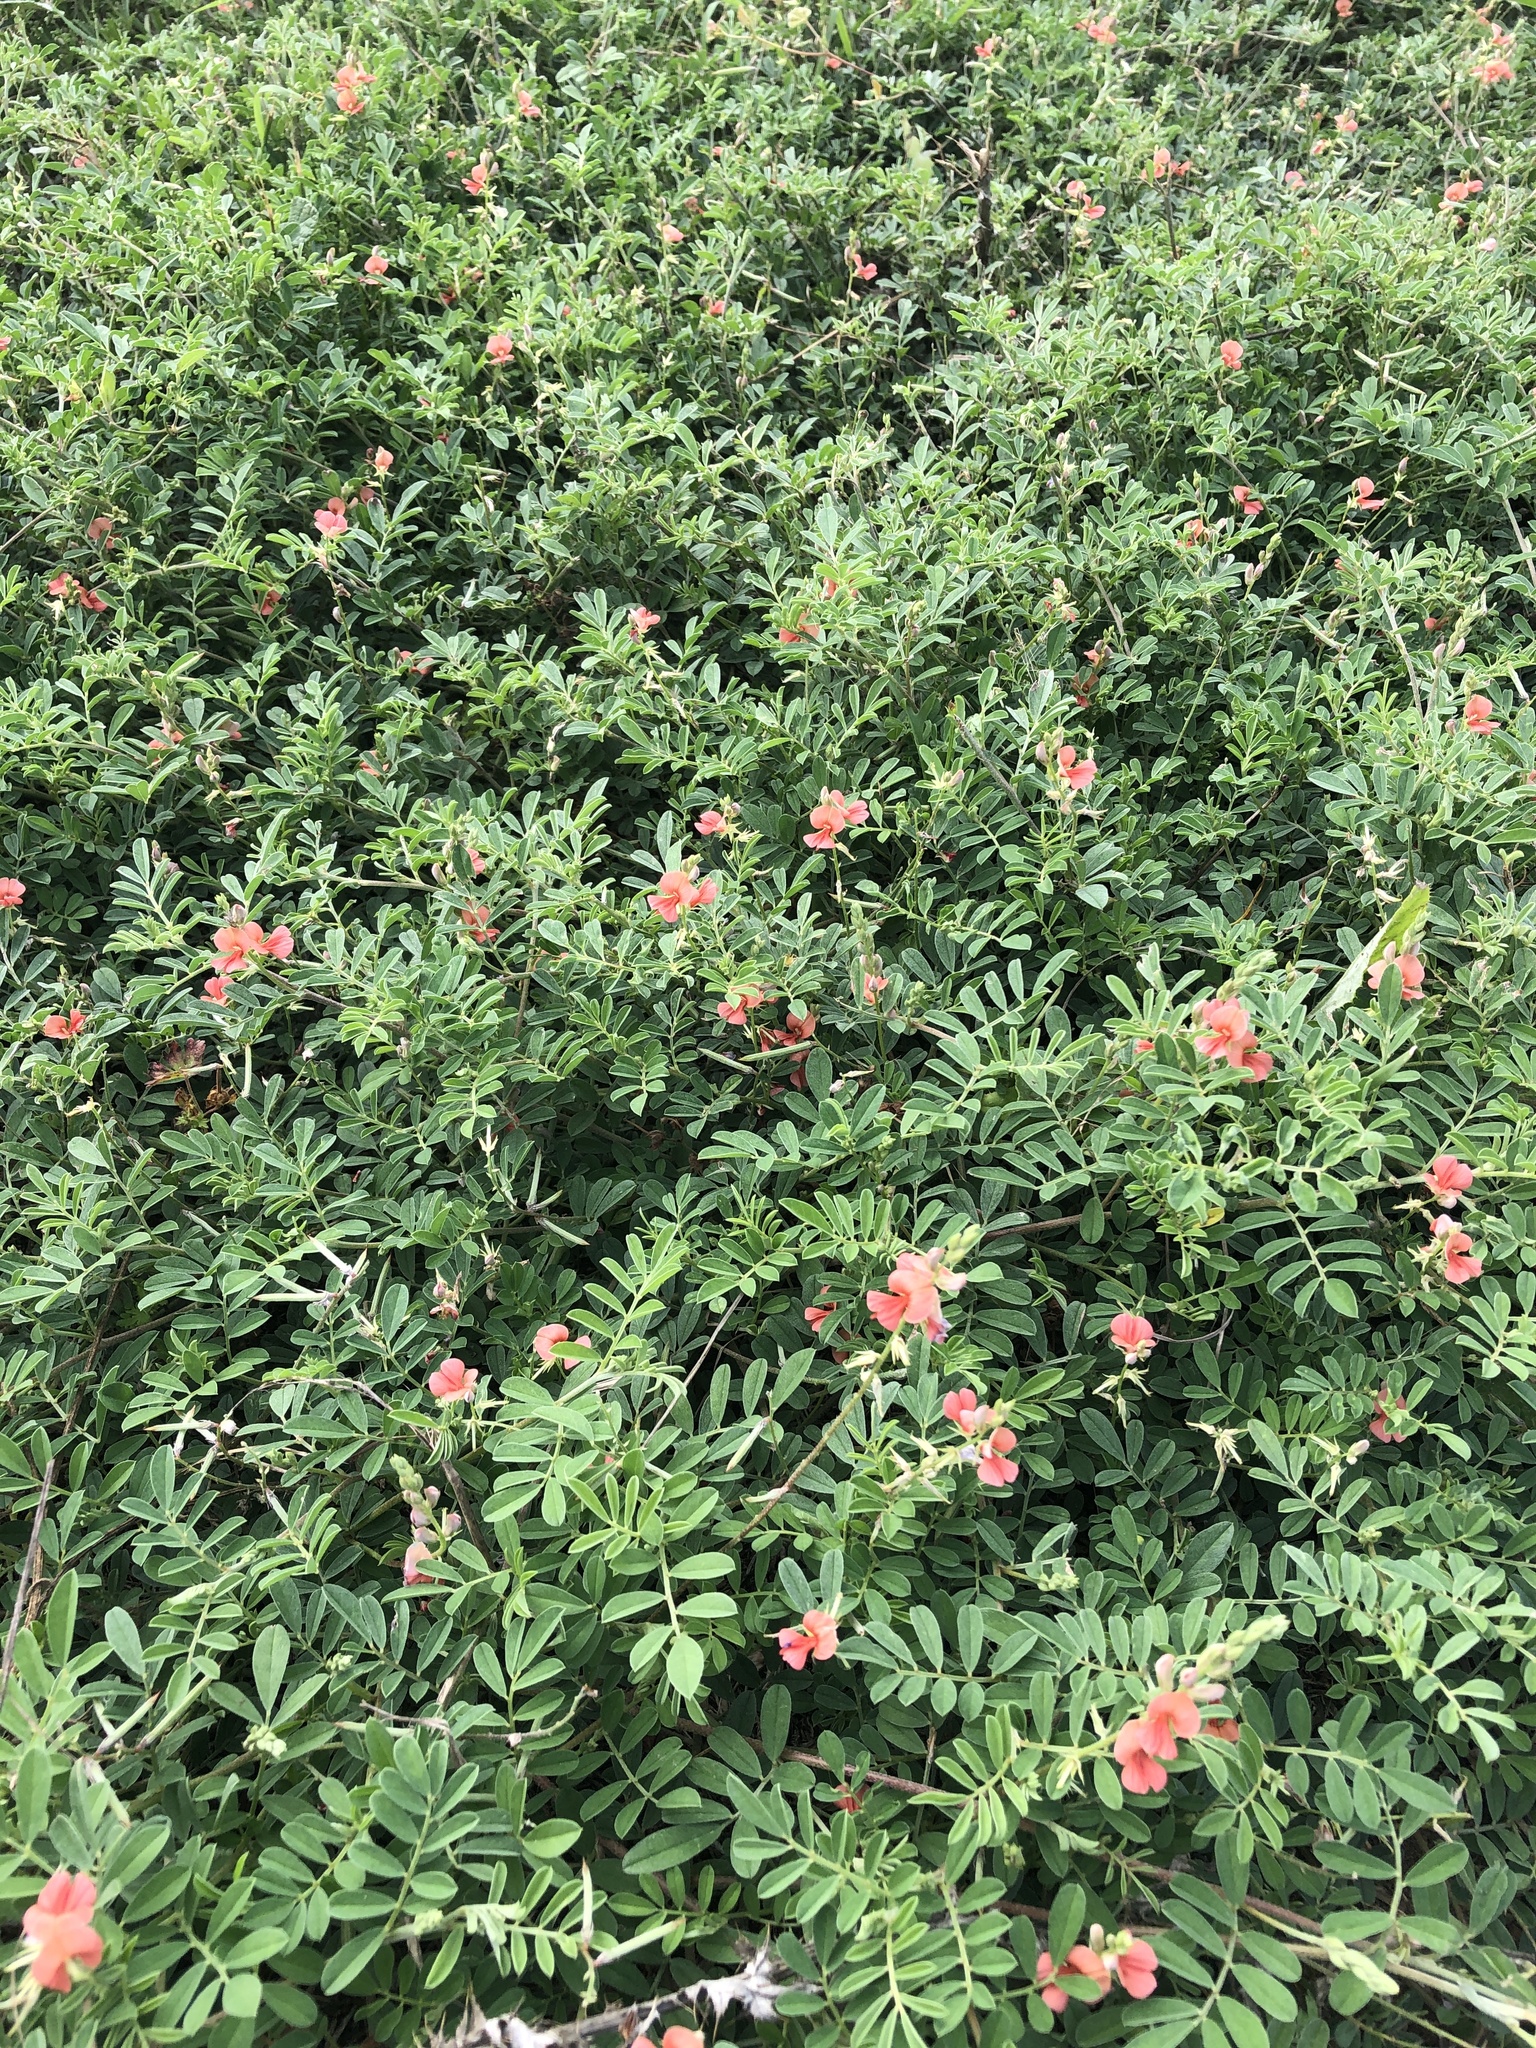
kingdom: Plantae
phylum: Tracheophyta
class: Magnoliopsida
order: Fabales
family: Fabaceae
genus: Indigofera
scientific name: Indigofera miniata
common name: Coast indigo
